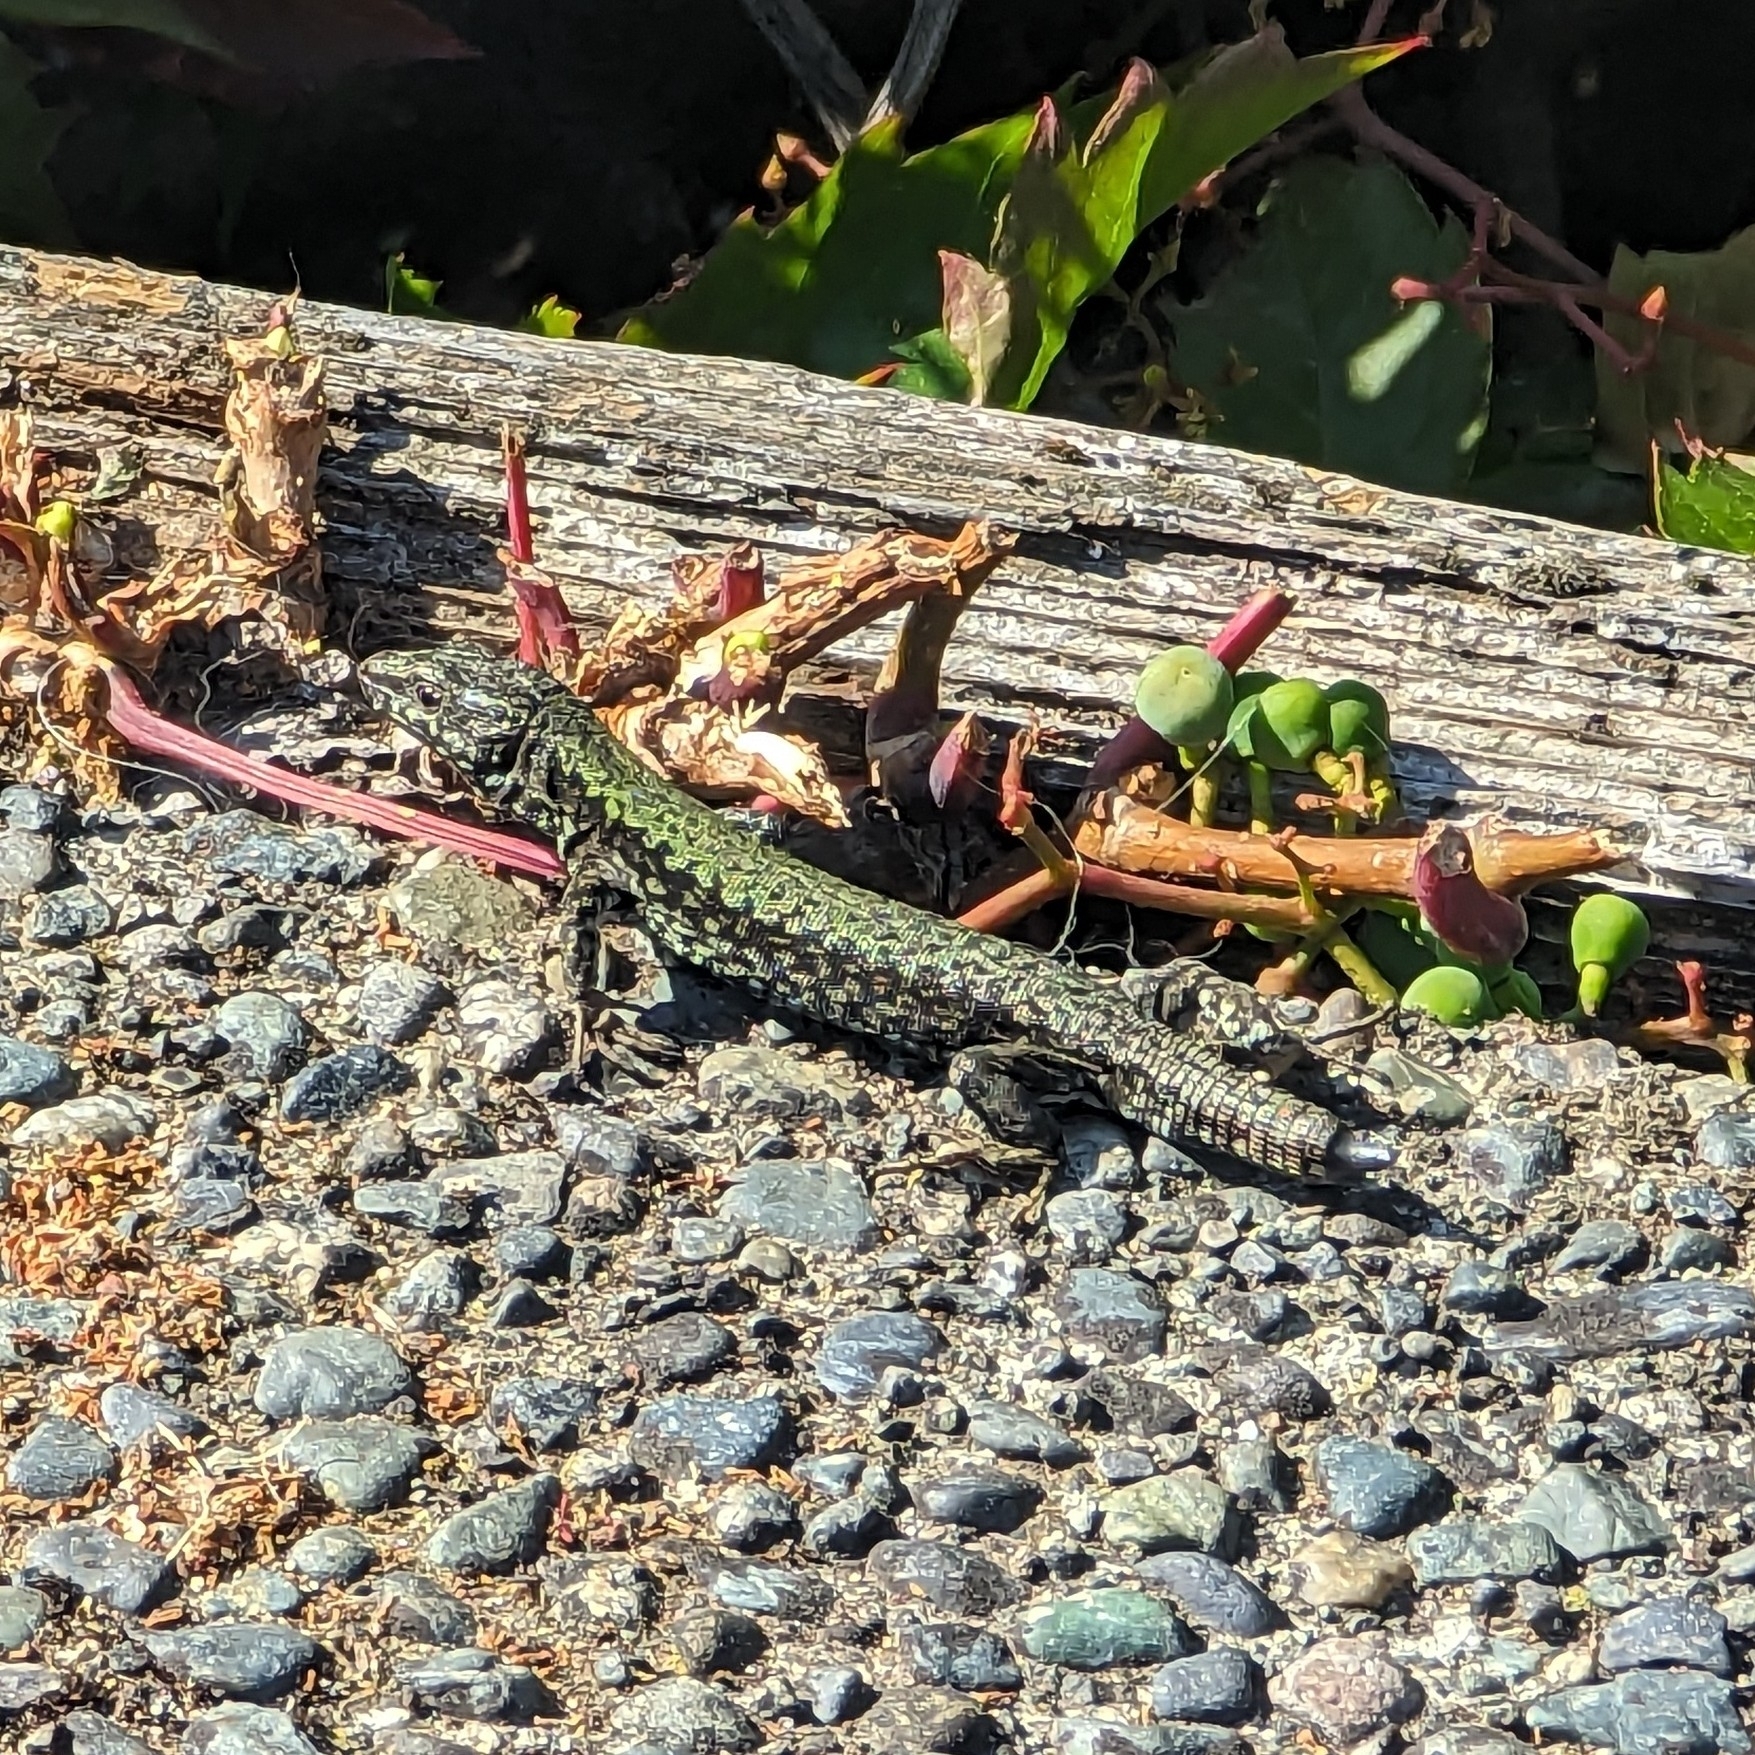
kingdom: Animalia
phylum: Chordata
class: Squamata
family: Lacertidae
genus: Podarcis
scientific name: Podarcis muralis
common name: Common wall lizard
